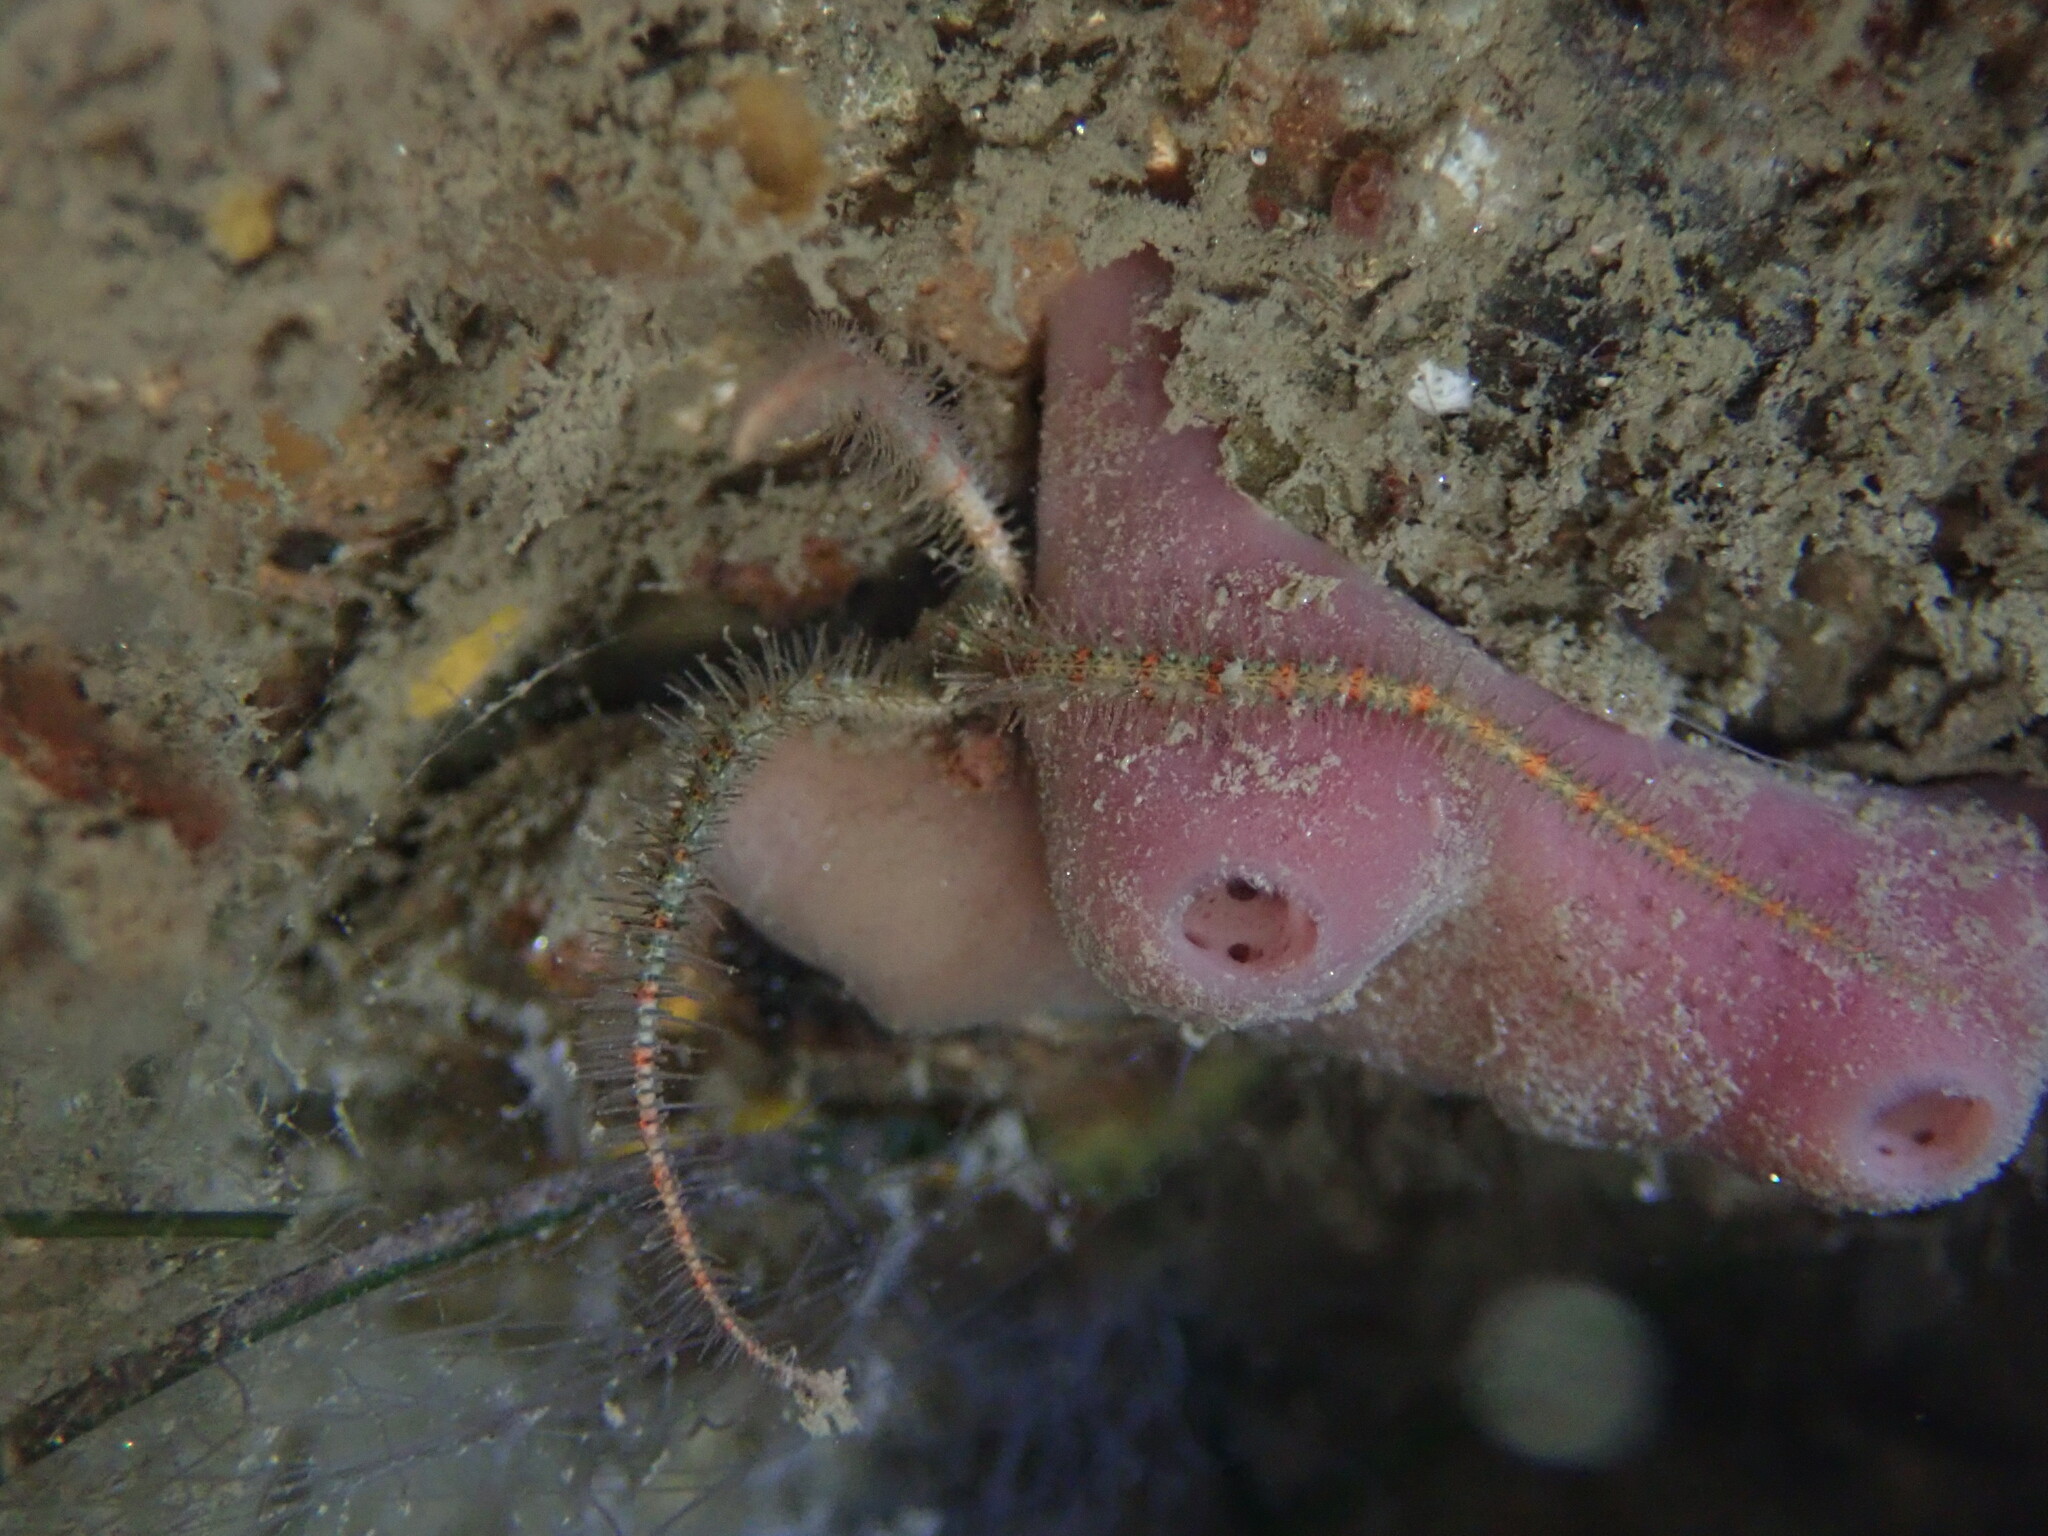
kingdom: Animalia
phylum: Echinodermata
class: Ophiuroidea
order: Amphilepidida
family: Ophiotrichidae
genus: Ophiothrix
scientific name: Ophiothrix spiculata
